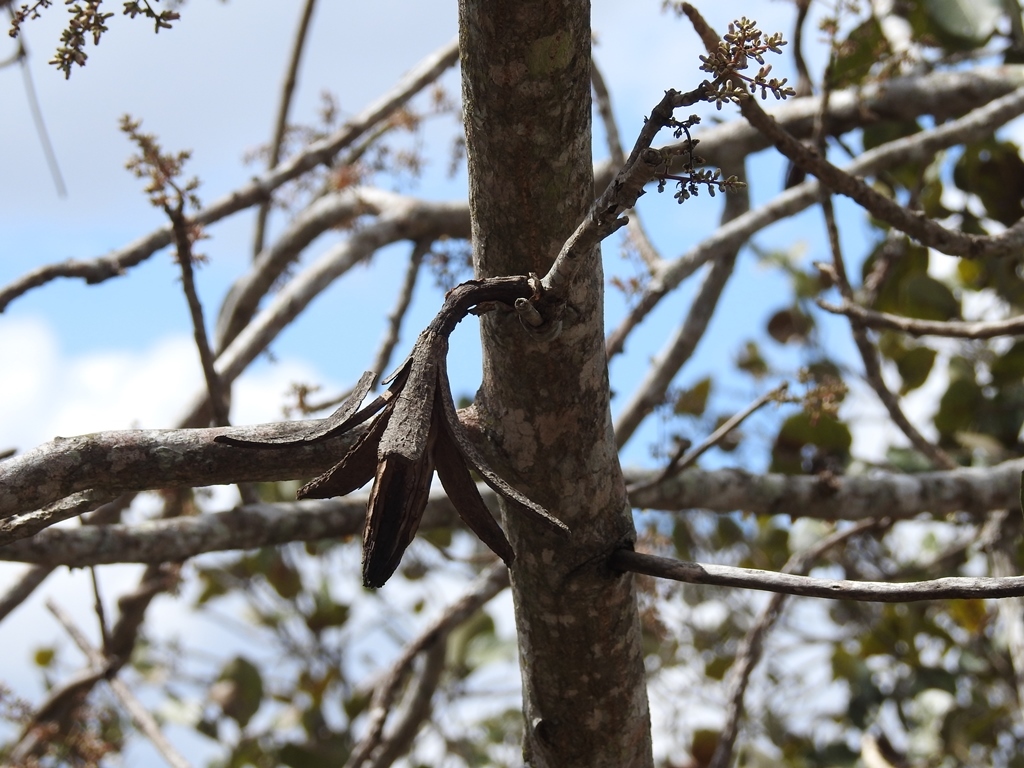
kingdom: Plantae
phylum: Tracheophyta
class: Magnoliopsida
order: Sapindales
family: Meliaceae
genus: Cedrela
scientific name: Cedrela salvadorensis
